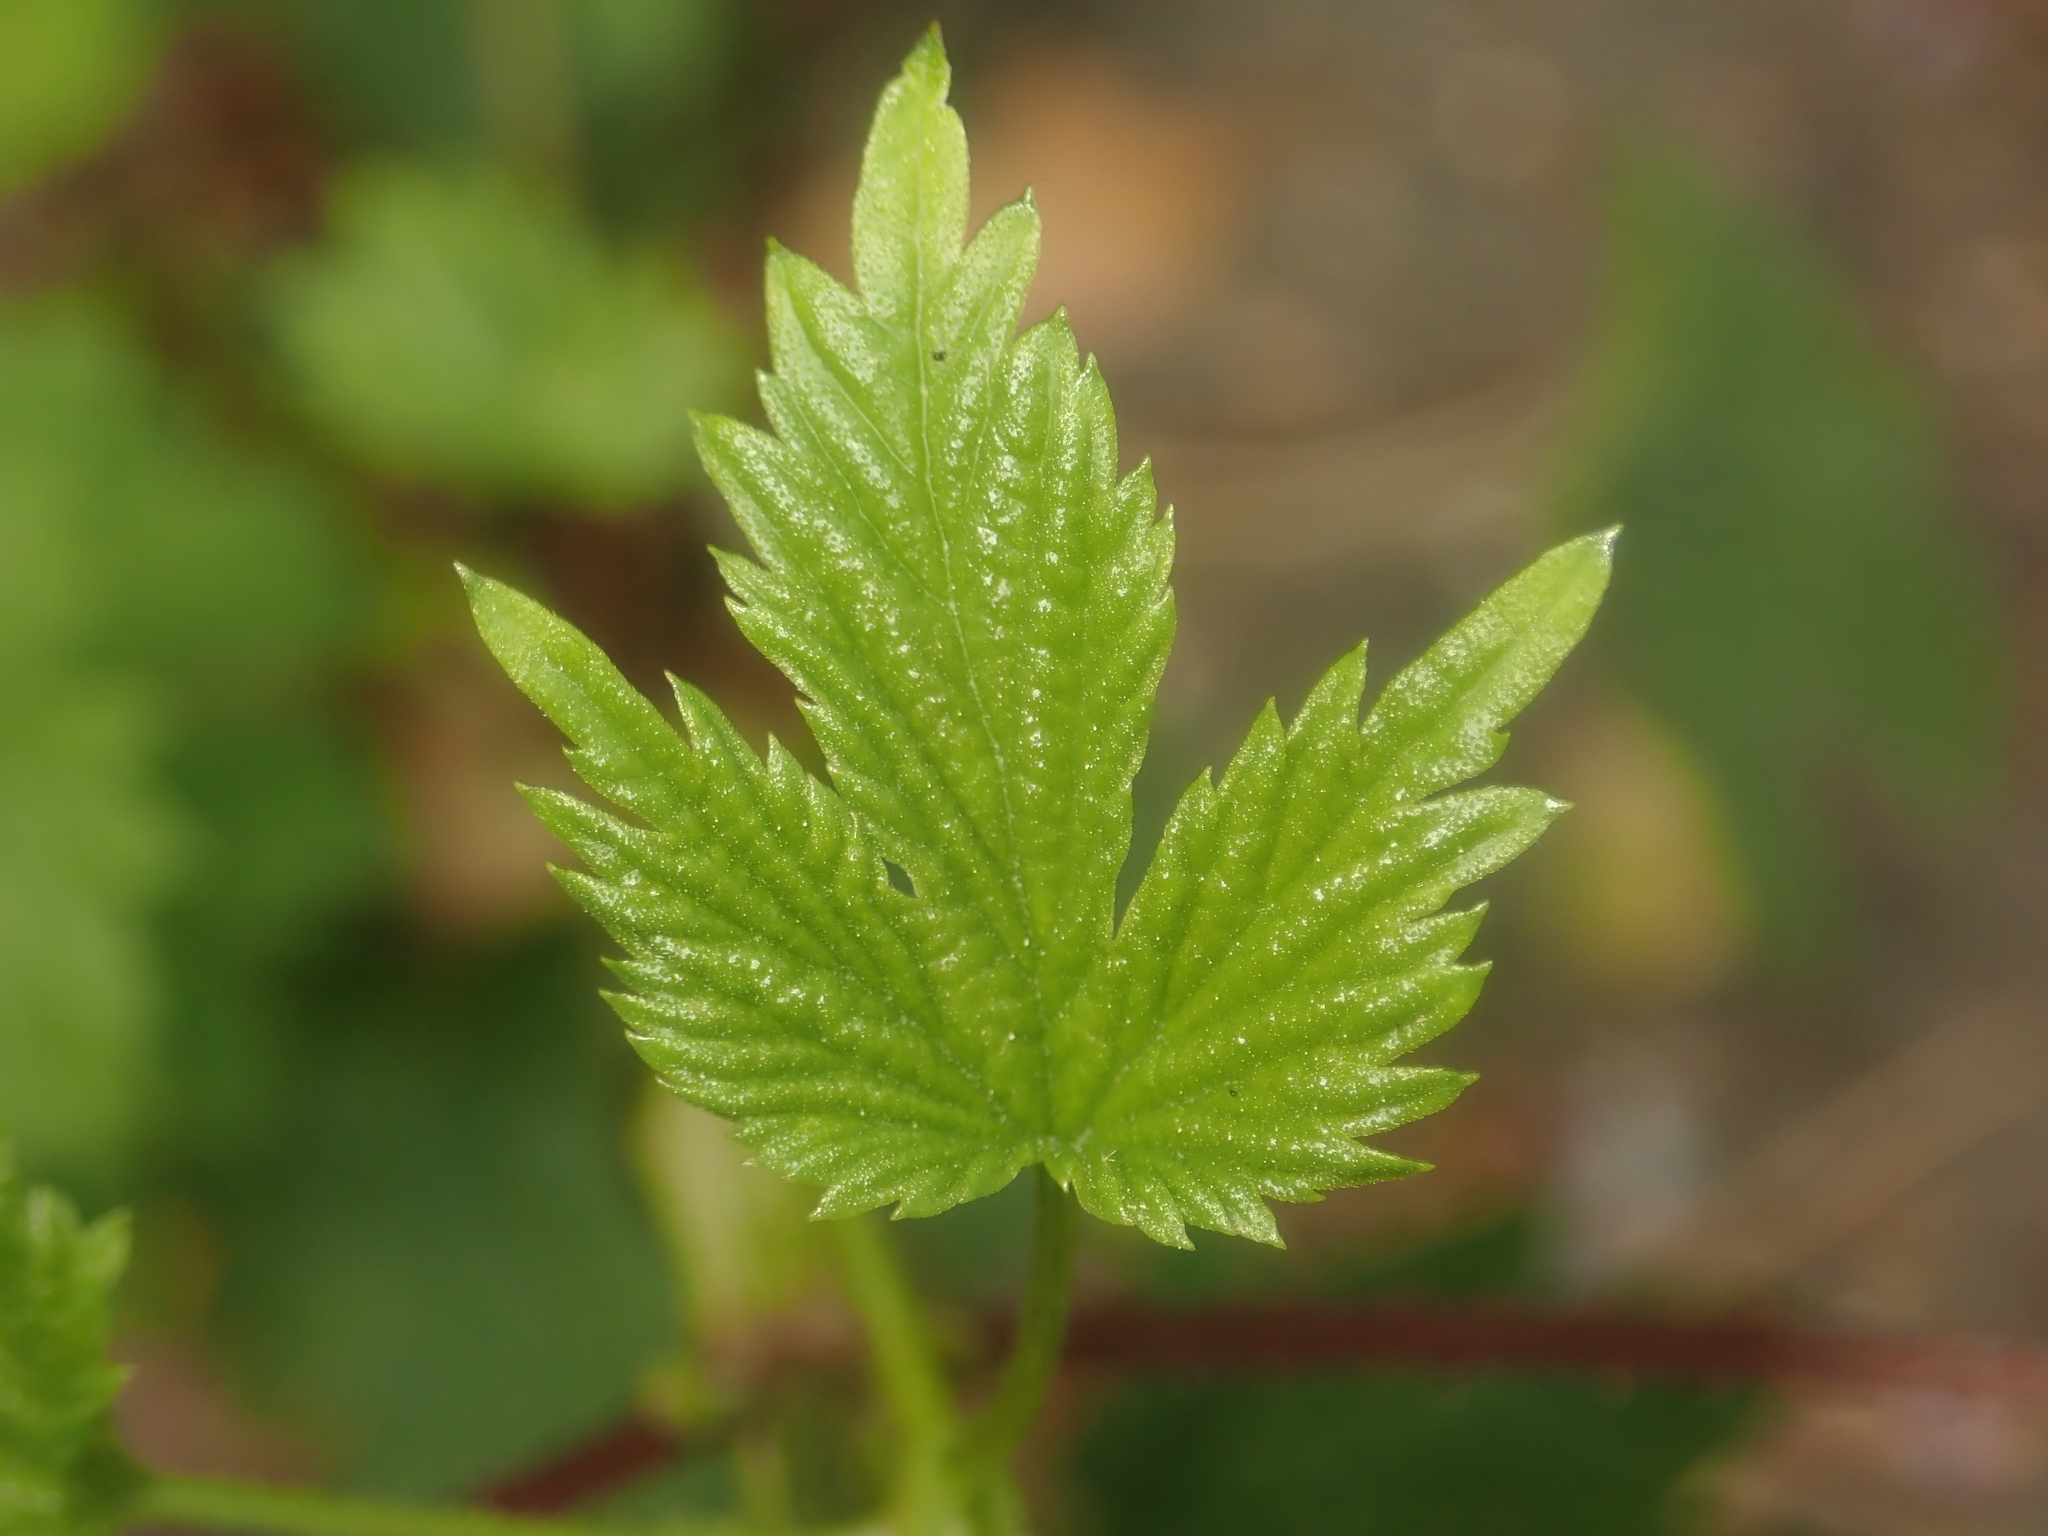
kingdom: Plantae
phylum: Tracheophyta
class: Magnoliopsida
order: Rosales
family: Cannabaceae
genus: Humulus
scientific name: Humulus lupulus
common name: Hop
